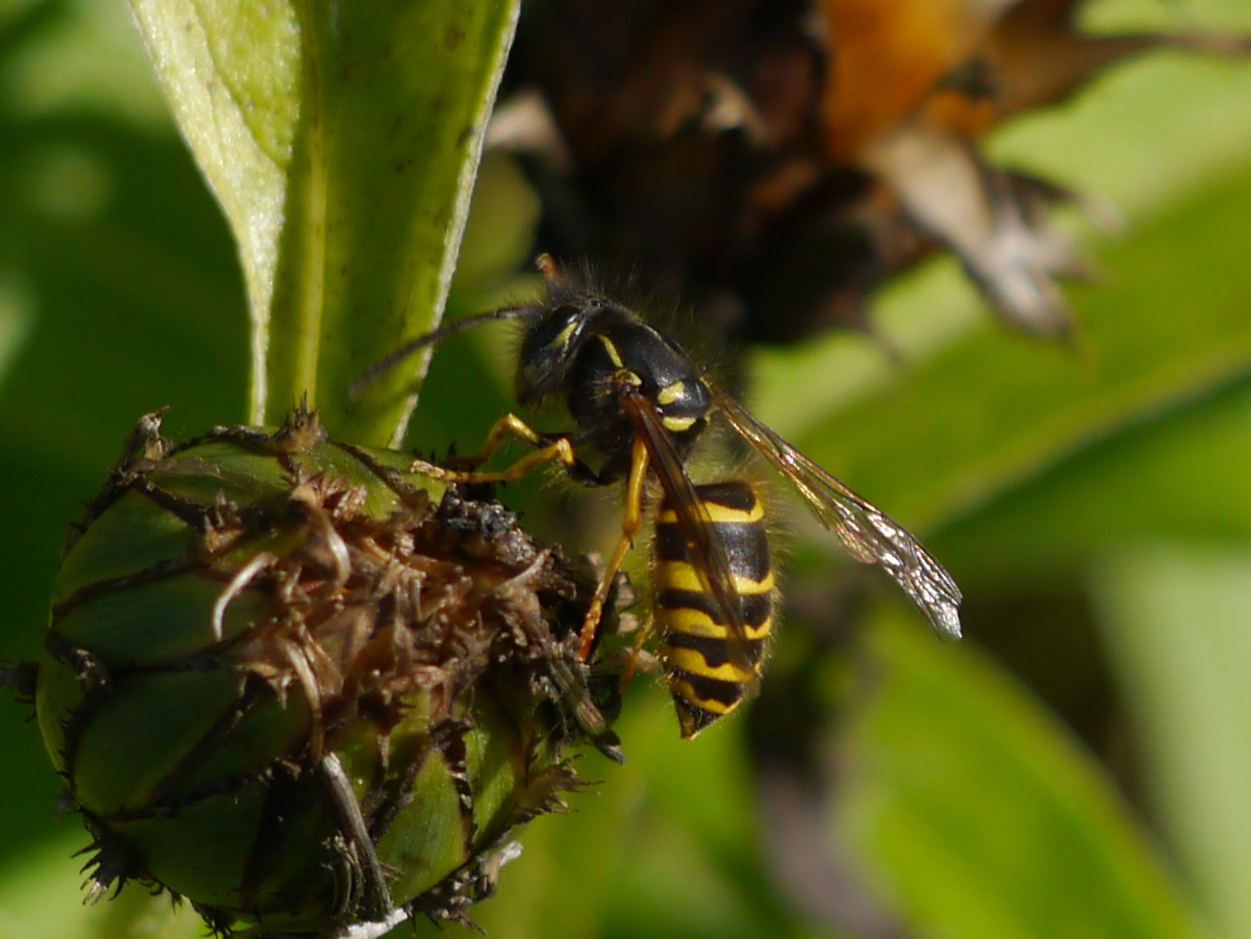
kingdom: Animalia
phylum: Arthropoda
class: Insecta
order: Hymenoptera
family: Vespidae
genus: Vespula
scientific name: Vespula alascensis
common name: Alaska yellowjacket
